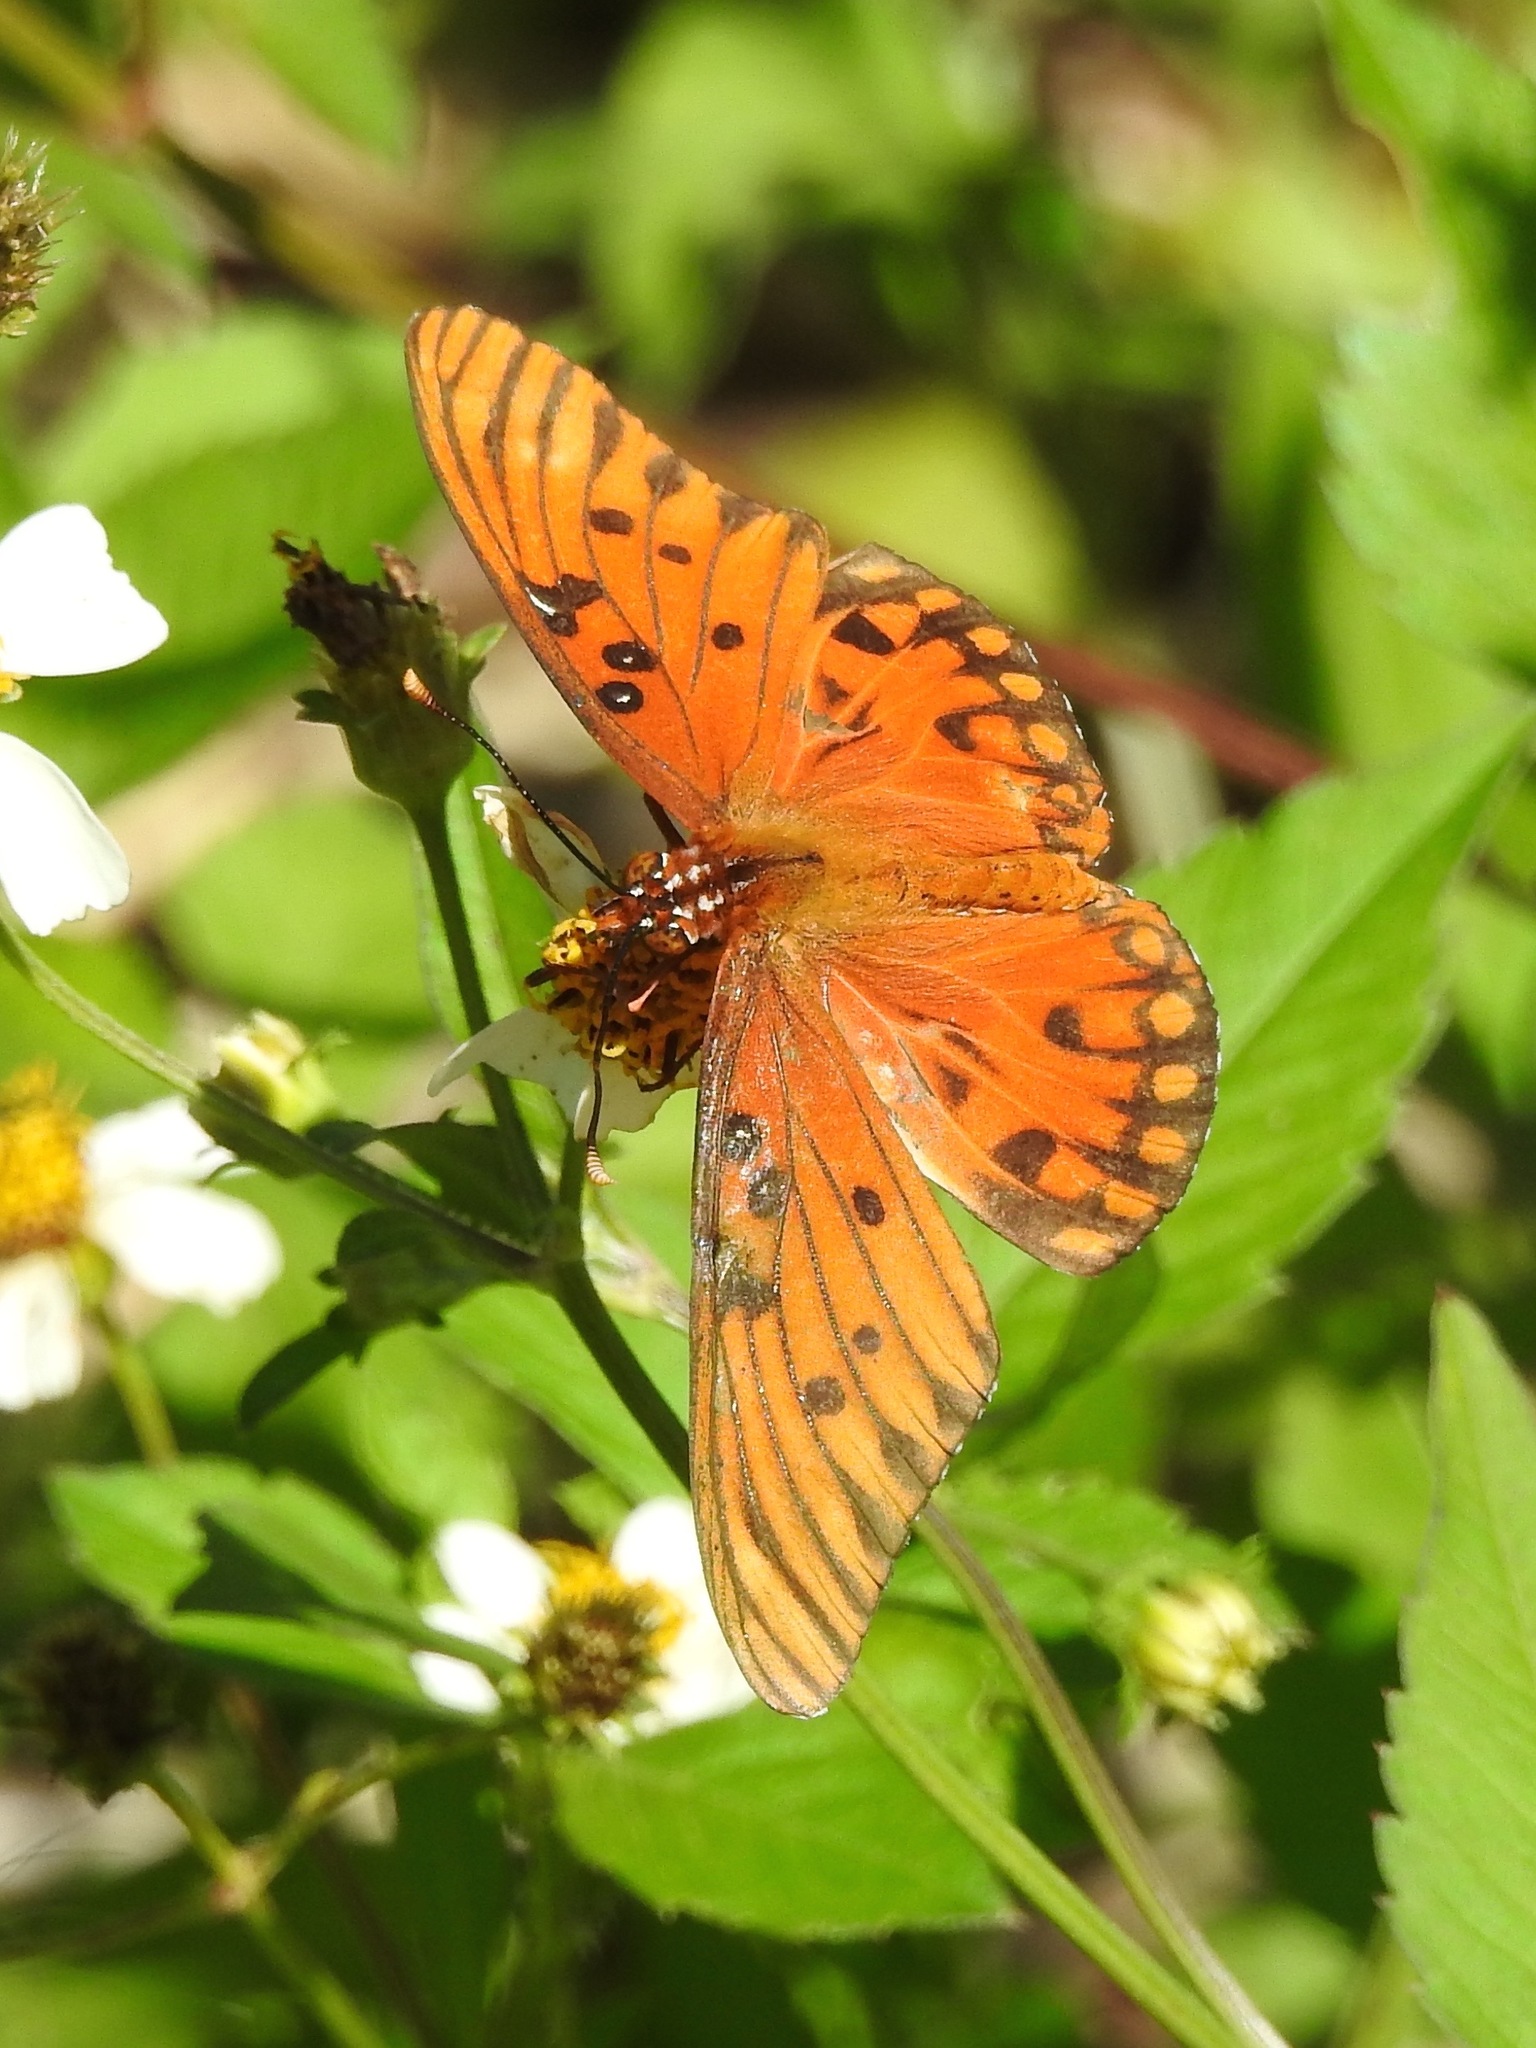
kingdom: Animalia
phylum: Arthropoda
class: Insecta
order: Lepidoptera
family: Nymphalidae
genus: Dione
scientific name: Dione vanillae
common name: Gulf fritillary
